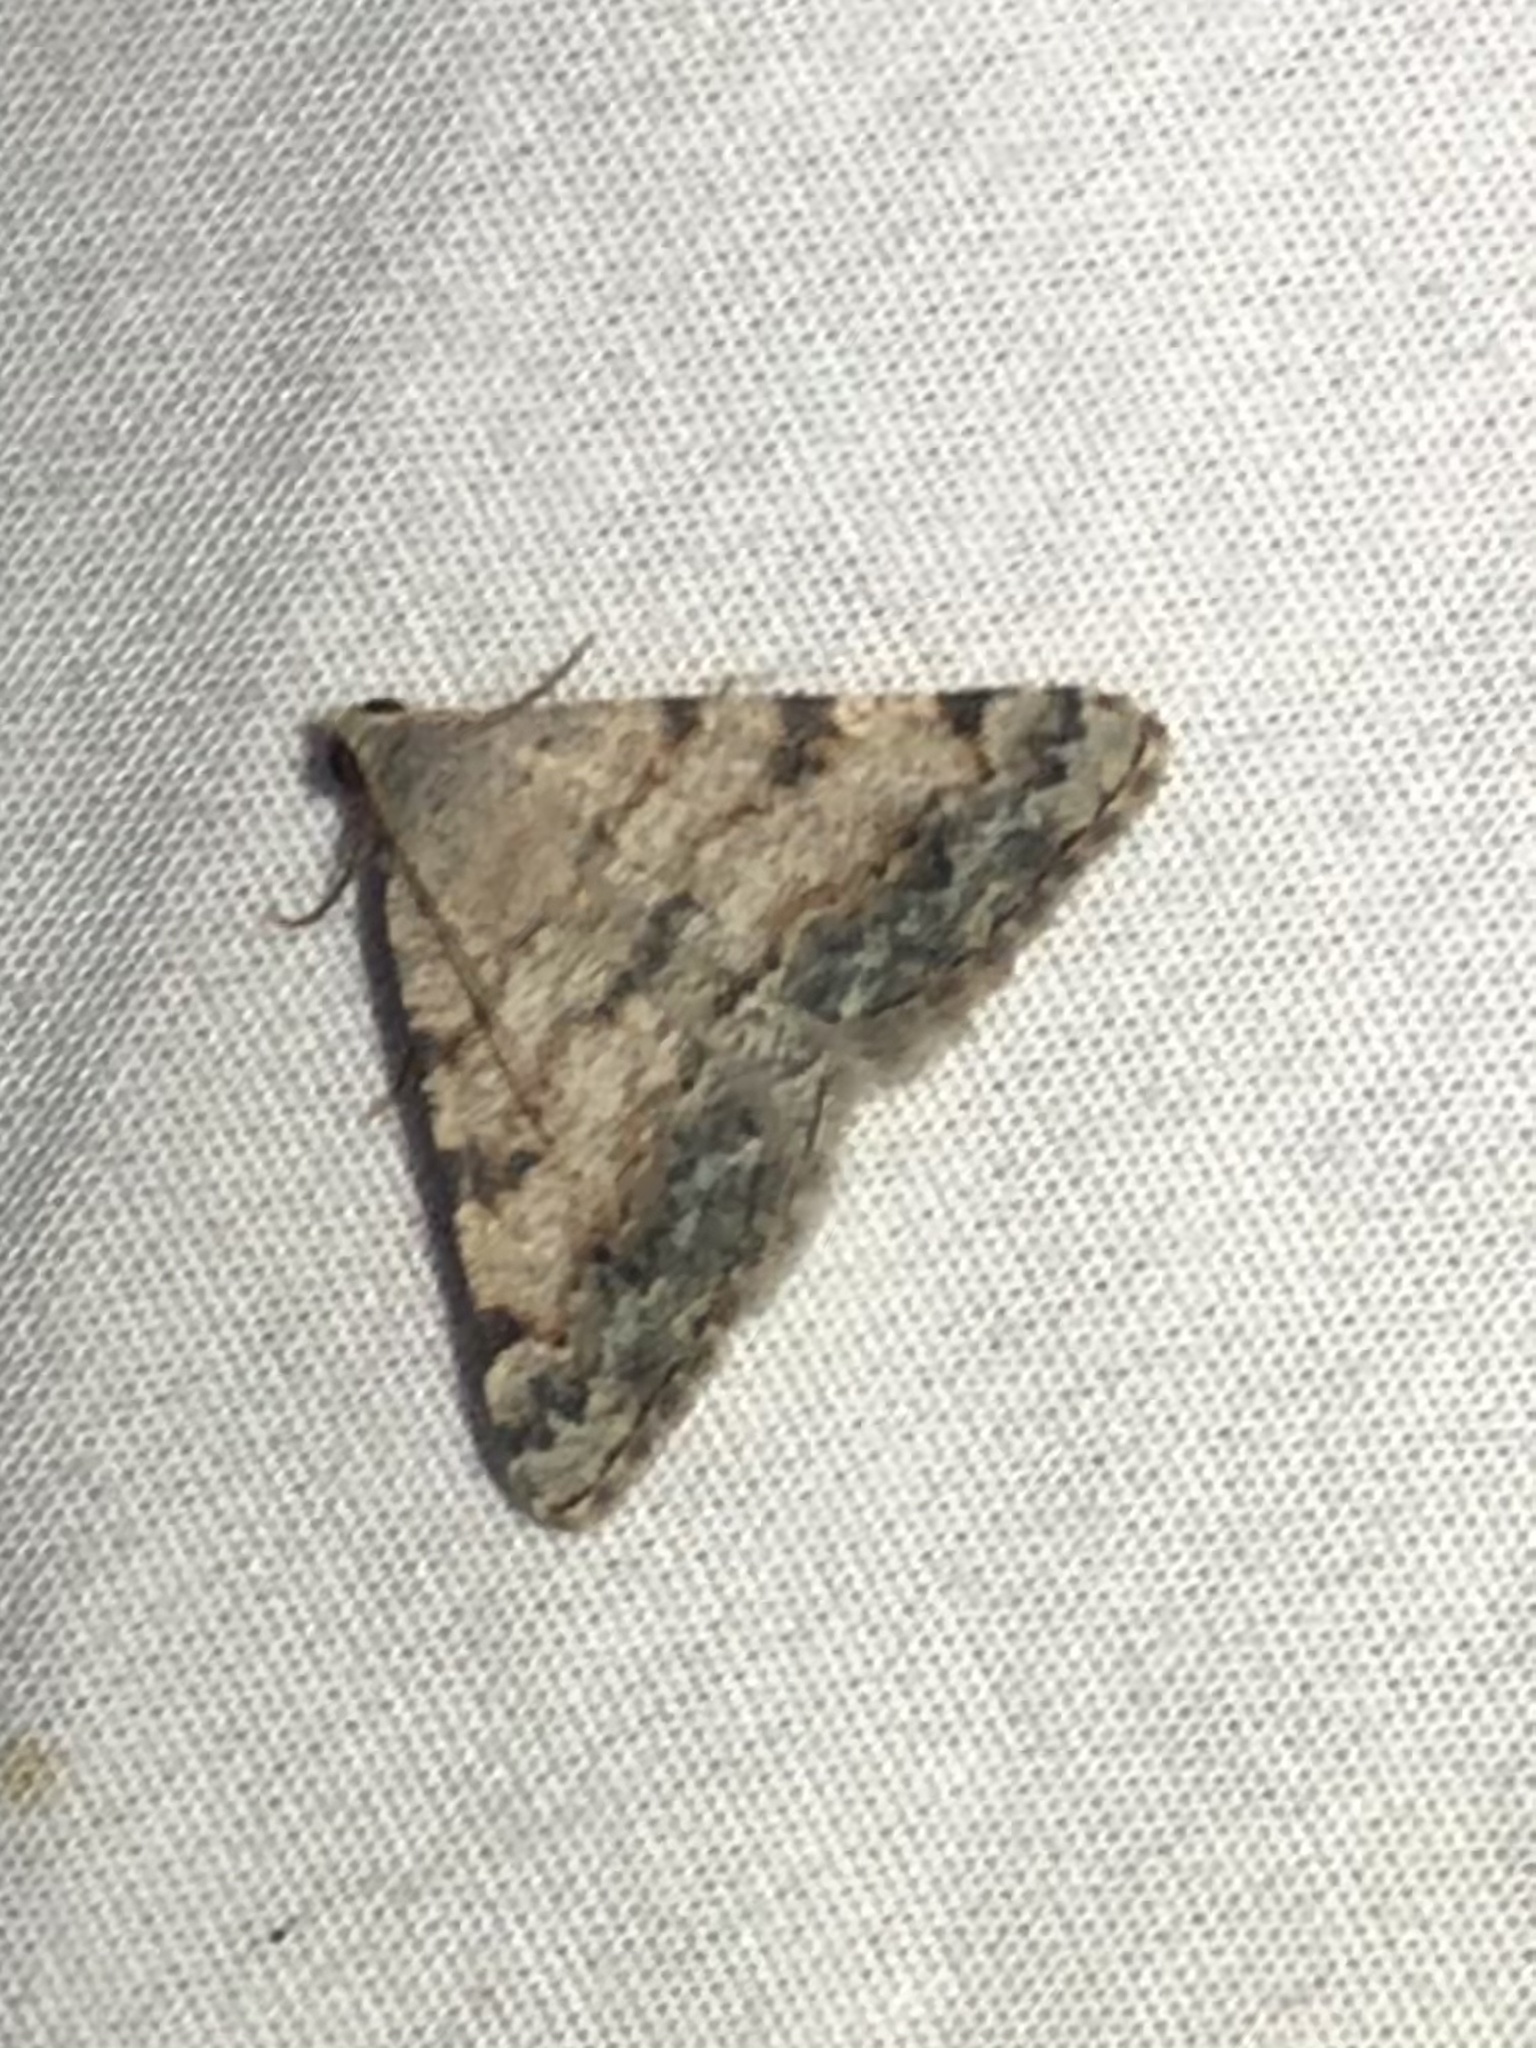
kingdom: Animalia
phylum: Arthropoda
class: Insecta
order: Lepidoptera
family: Geometridae
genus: Digrammia
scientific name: Digrammia colorata
